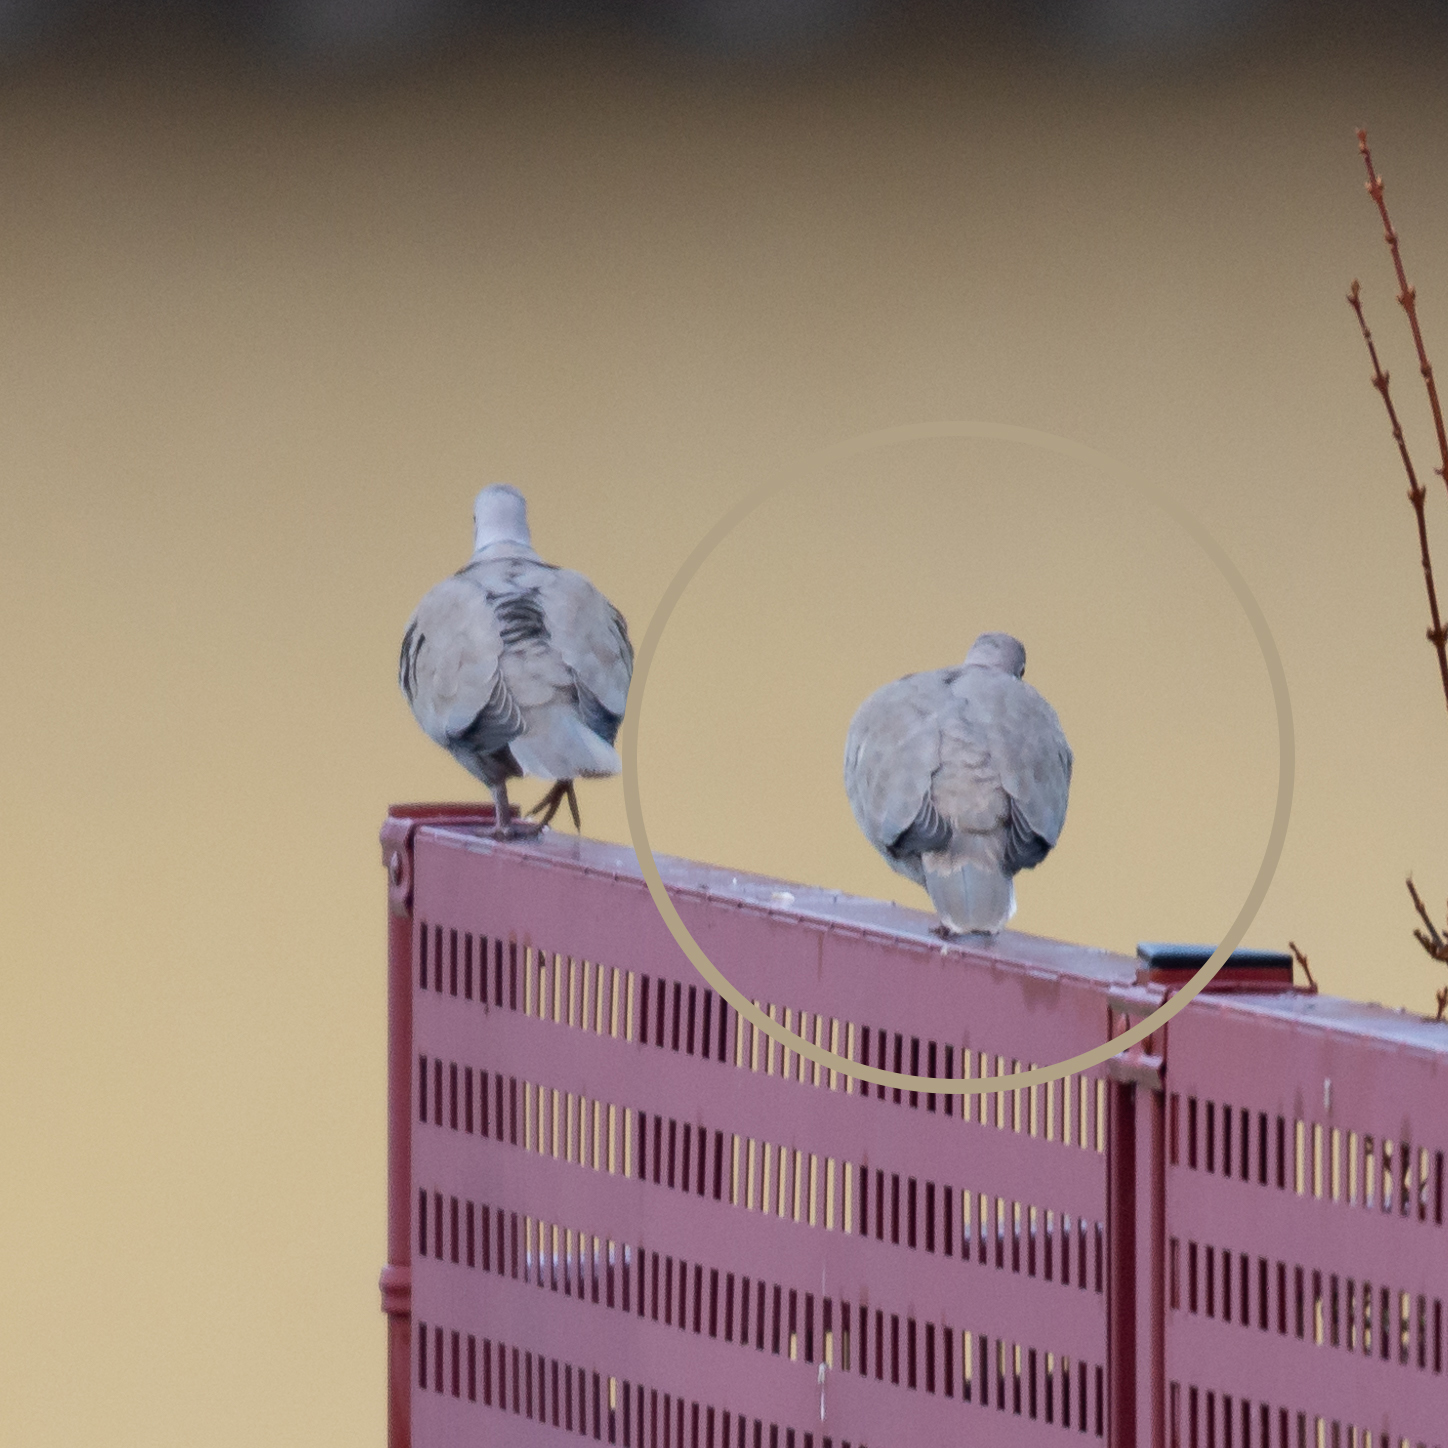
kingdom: Animalia
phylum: Chordata
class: Aves
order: Columbiformes
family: Columbidae
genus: Streptopelia
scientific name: Streptopelia decaocto
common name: Eurasian collared dove
